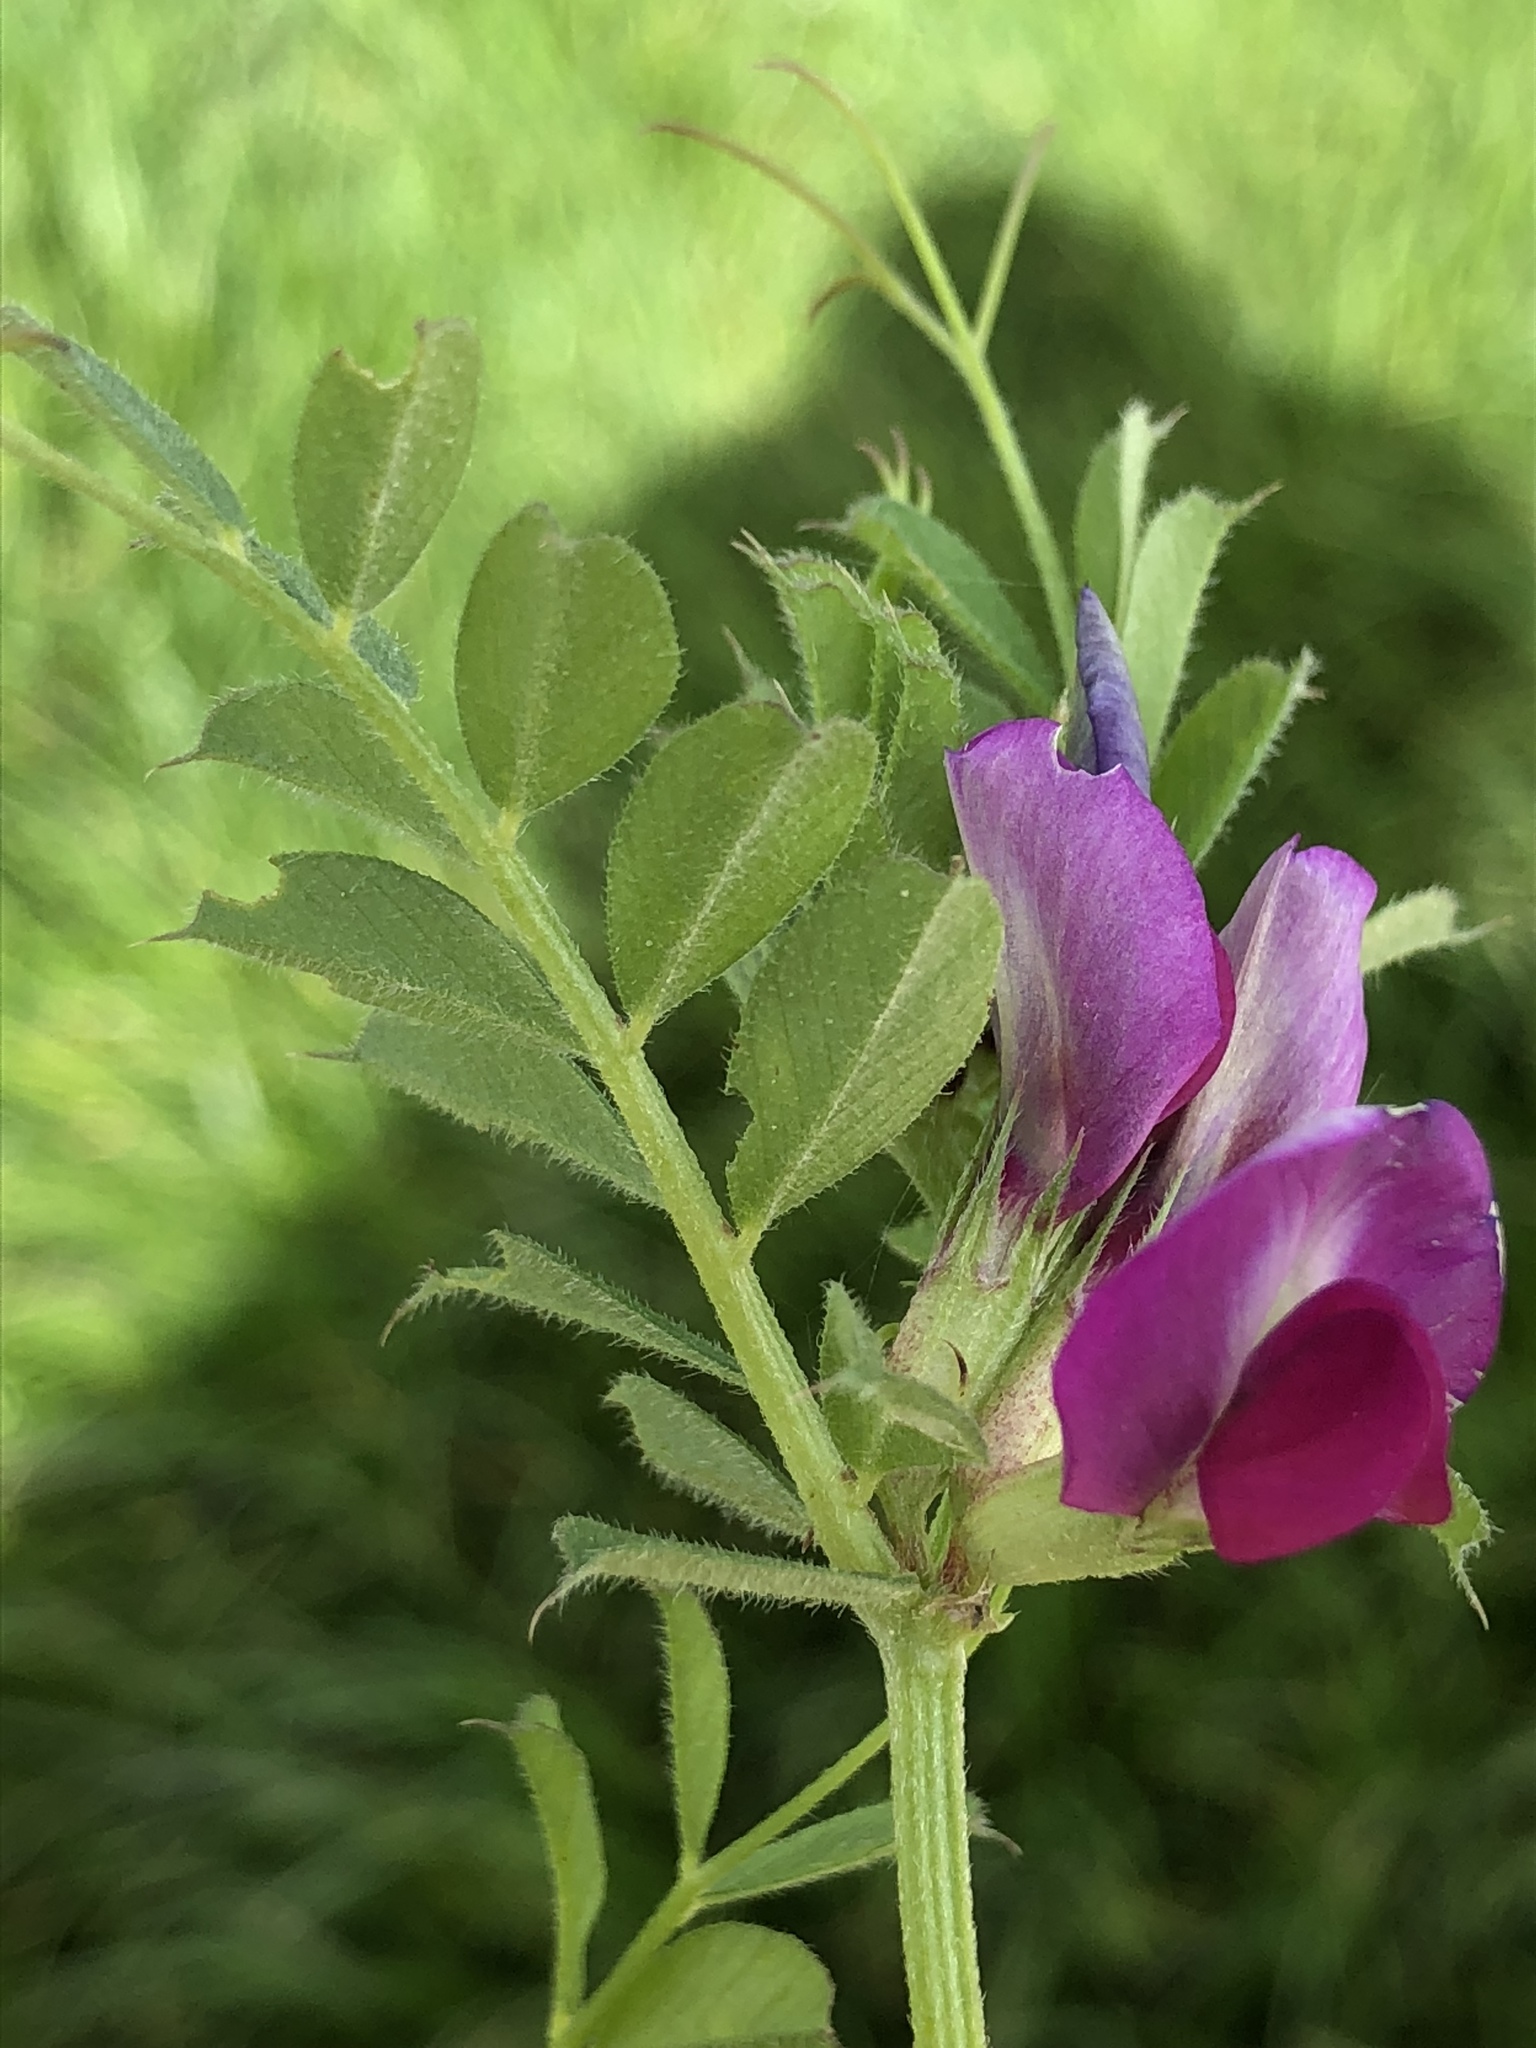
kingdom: Plantae
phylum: Tracheophyta
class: Magnoliopsida
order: Fabales
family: Fabaceae
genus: Vicia
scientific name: Vicia sativa
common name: Garden vetch
